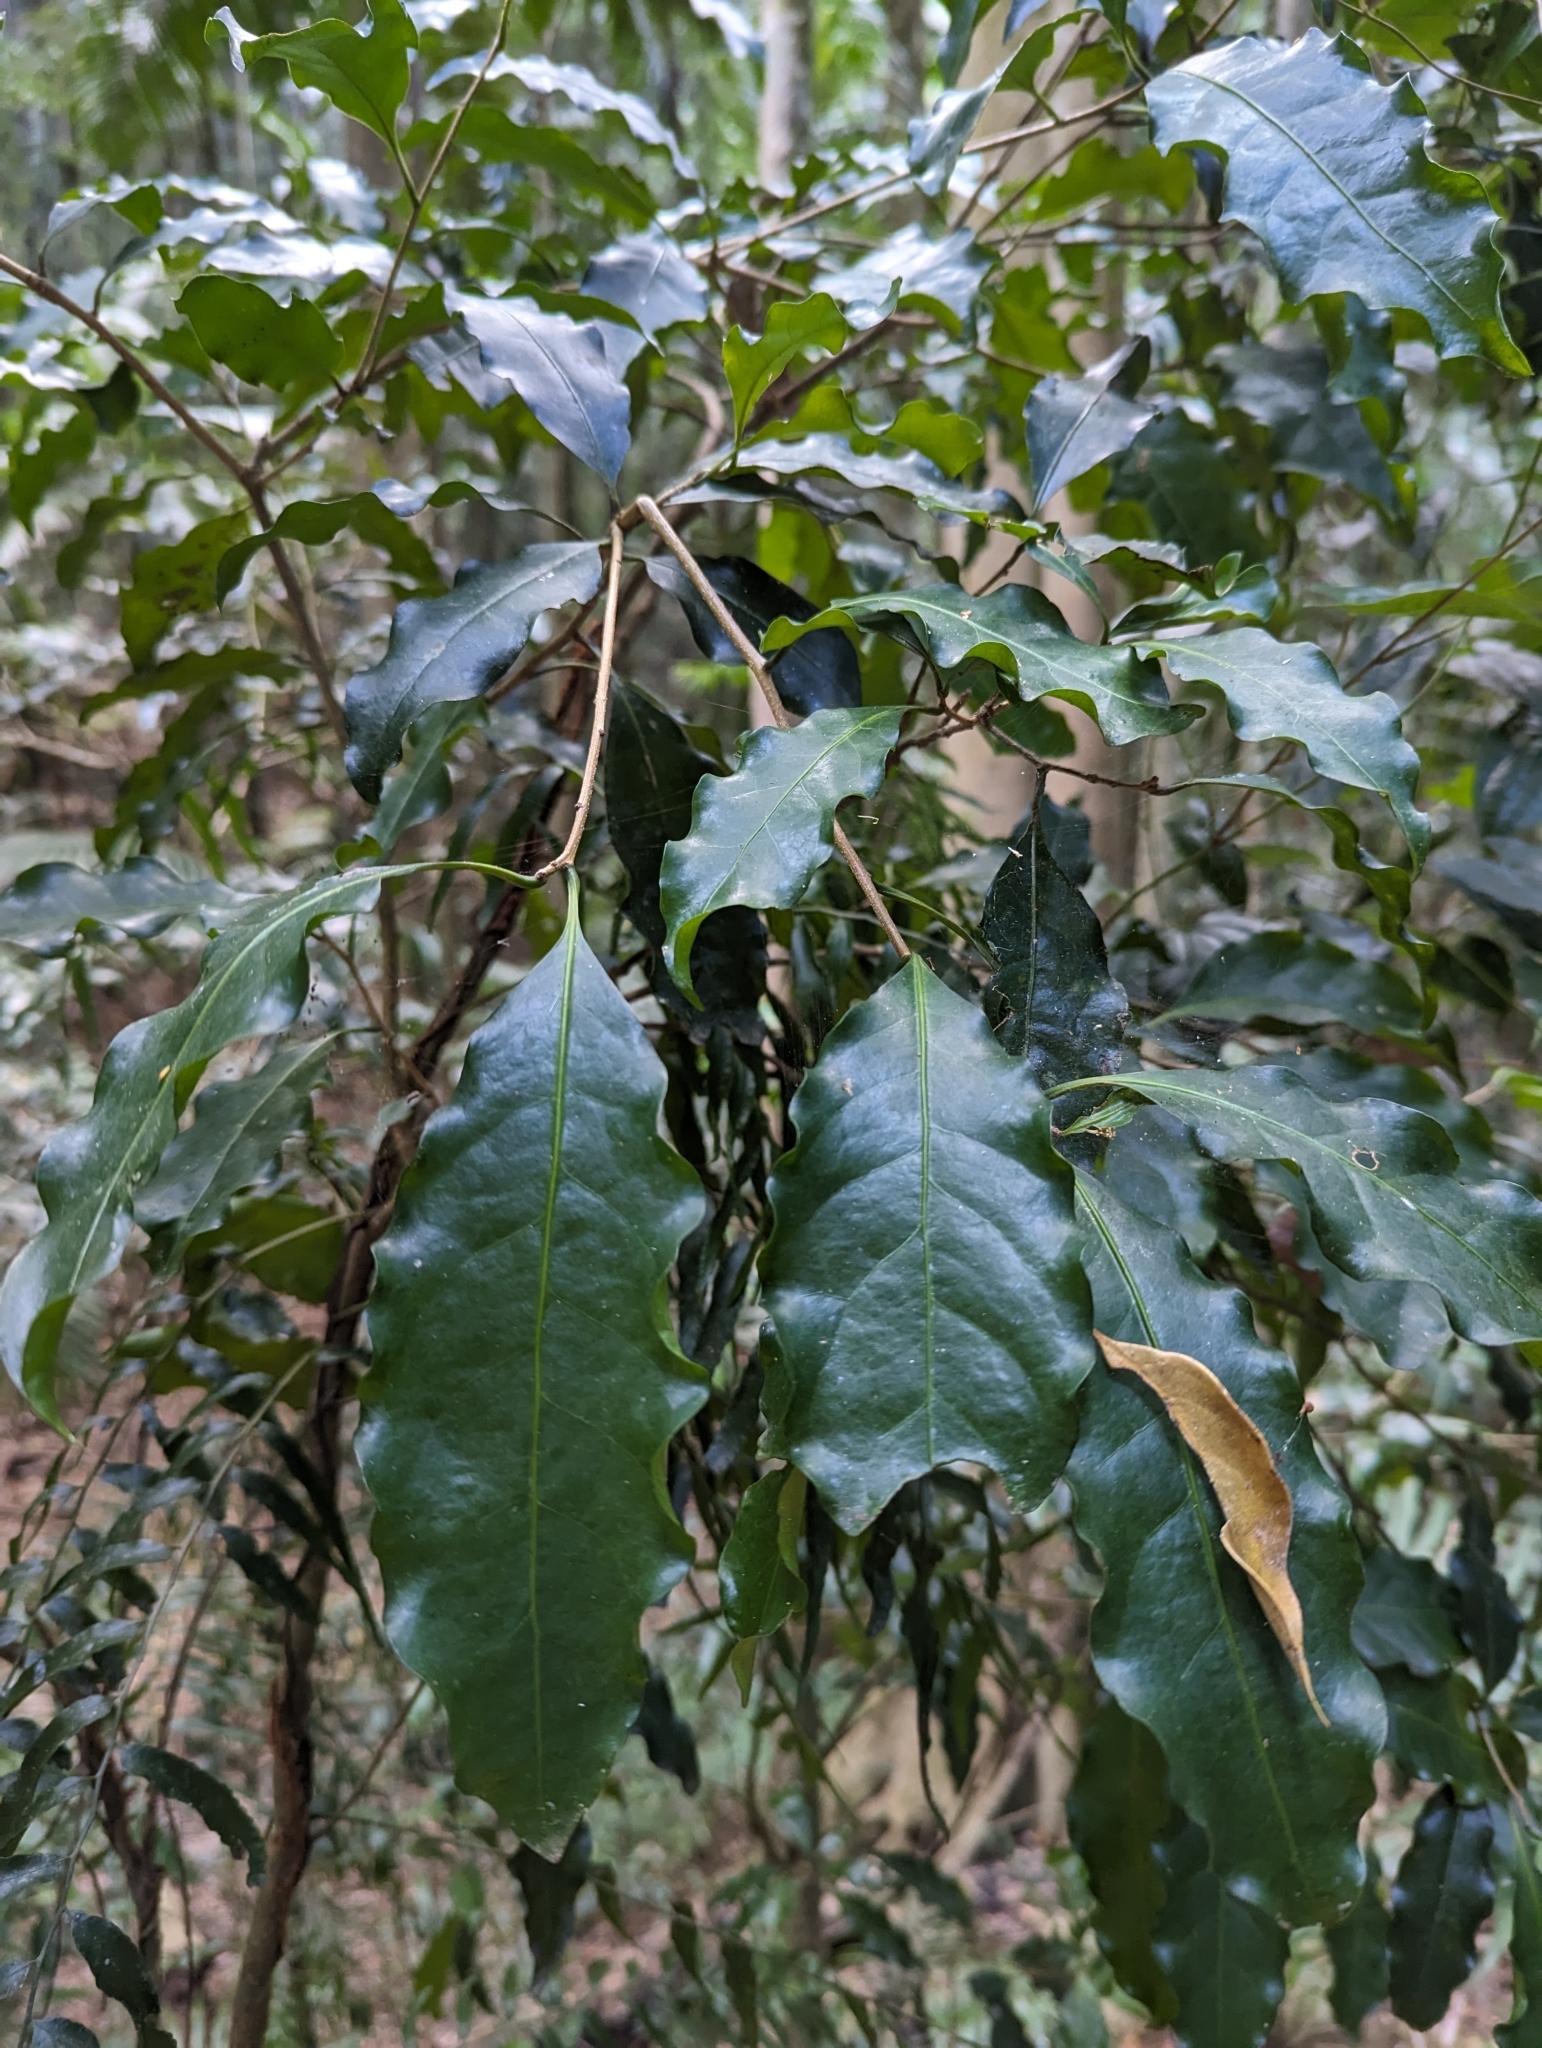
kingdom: Plantae
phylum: Tracheophyta
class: Magnoliopsida
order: Malpighiales
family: Phyllanthaceae
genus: Actephila
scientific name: Actephila mooreana
